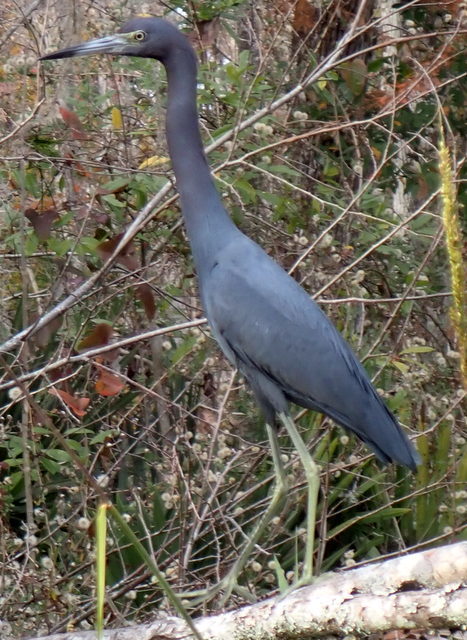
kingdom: Animalia
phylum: Chordata
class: Aves
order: Pelecaniformes
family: Ardeidae
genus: Egretta
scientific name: Egretta caerulea
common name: Little blue heron
